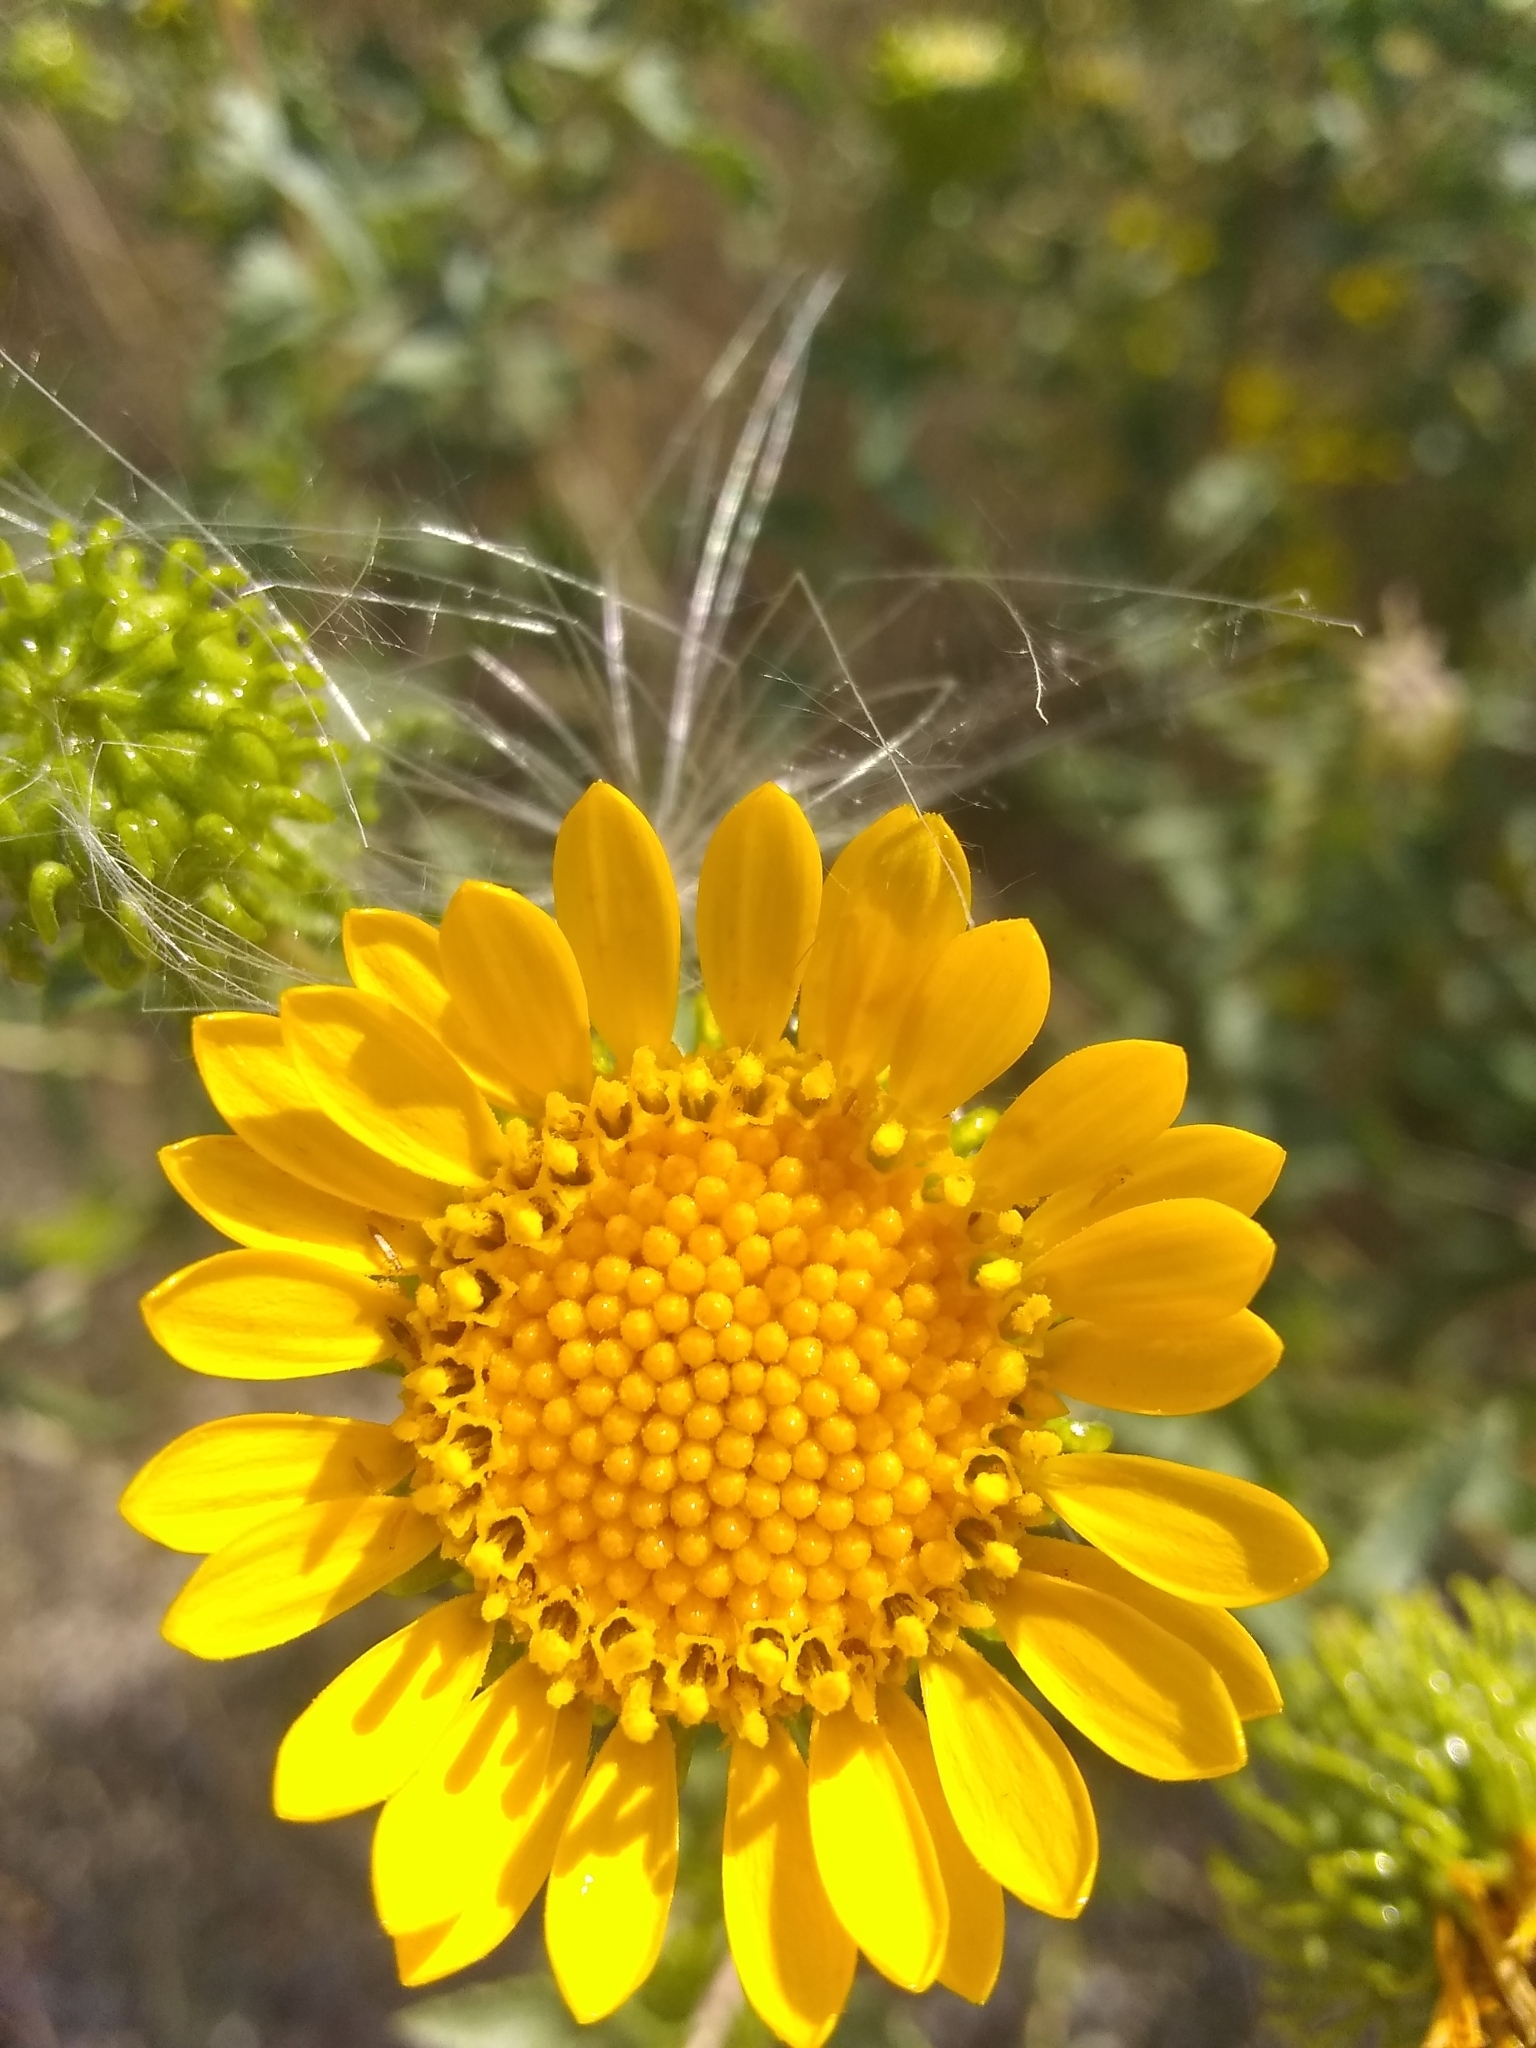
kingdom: Plantae
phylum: Tracheophyta
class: Magnoliopsida
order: Asterales
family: Asteraceae
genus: Grindelia
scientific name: Grindelia squarrosa
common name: Curly-cup gumweed
